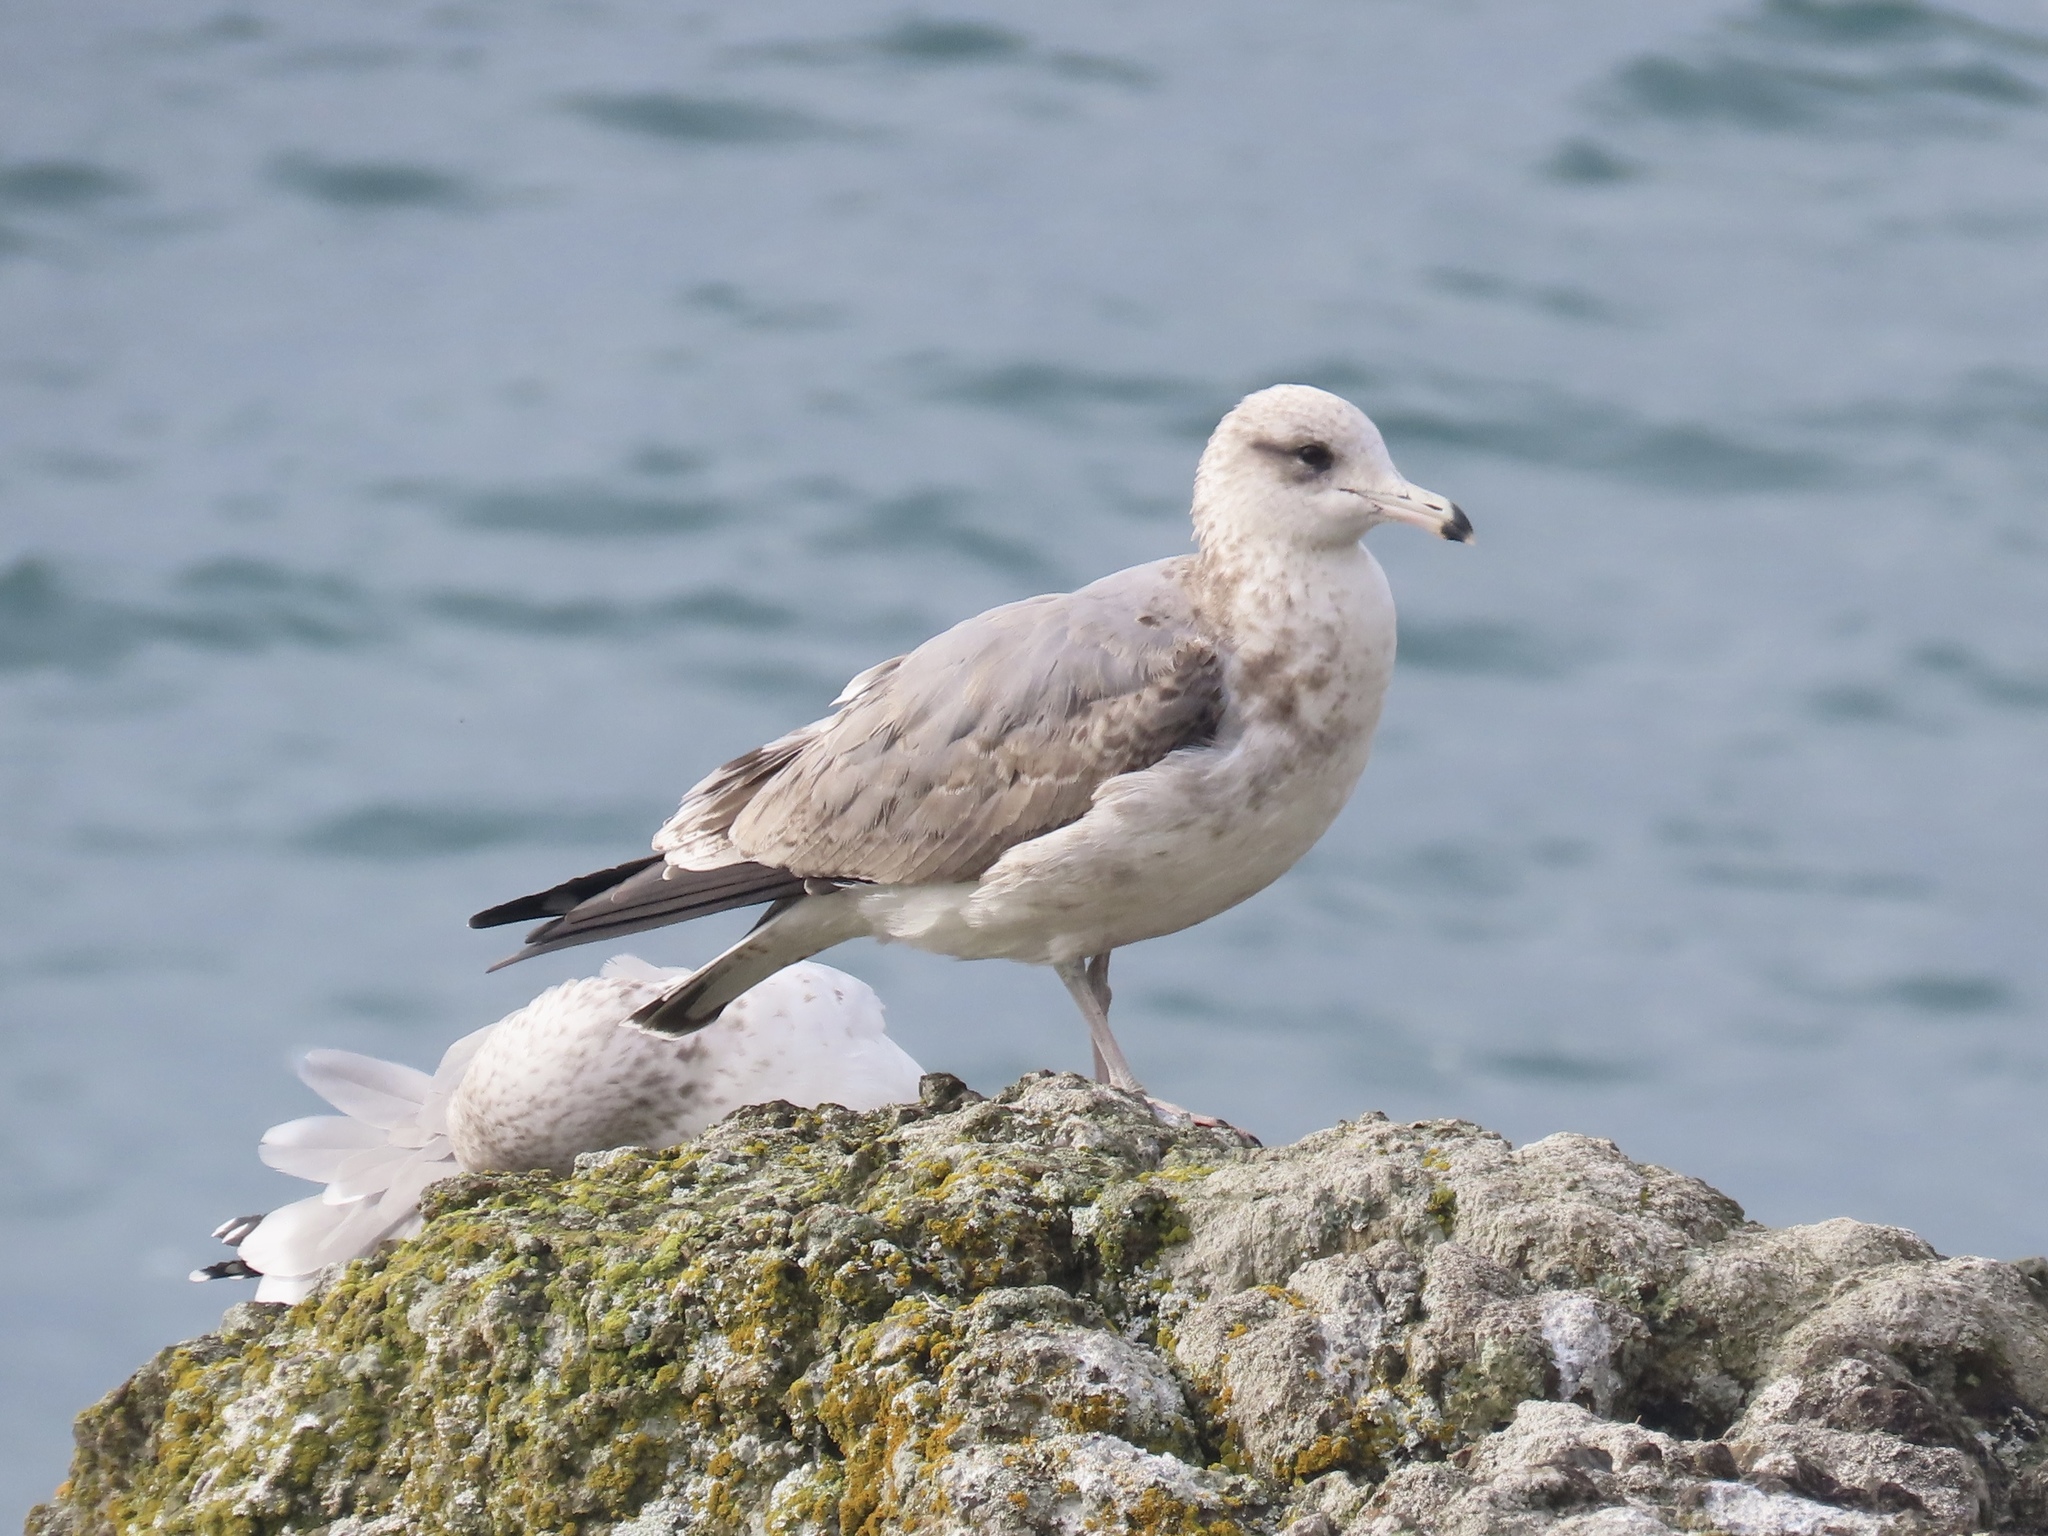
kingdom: Animalia
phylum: Chordata
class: Aves
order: Charadriiformes
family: Laridae
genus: Larus
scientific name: Larus californicus
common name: California gull
